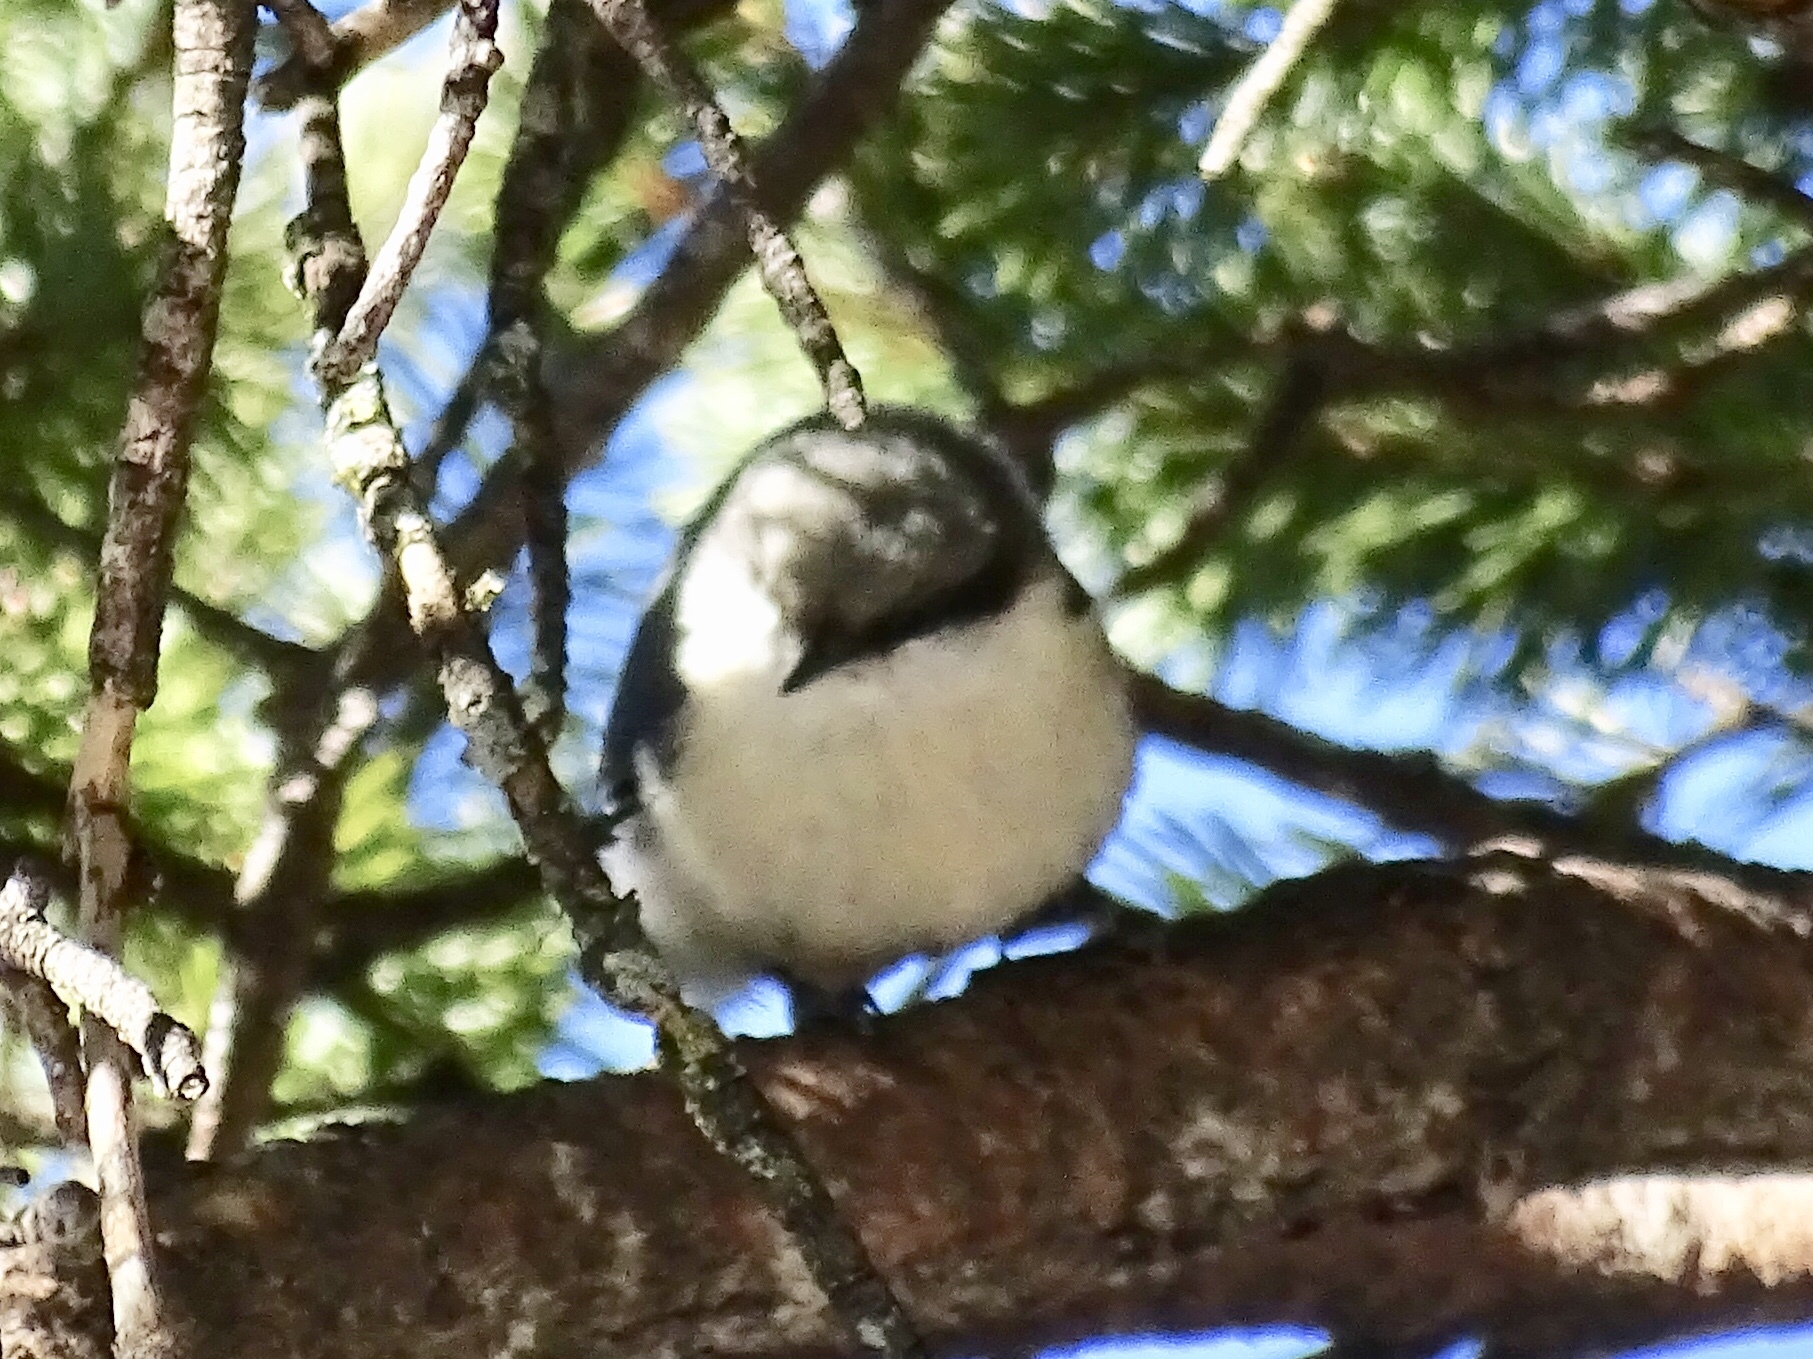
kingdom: Animalia
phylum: Chordata
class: Aves
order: Passeriformes
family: Sittidae
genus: Sitta
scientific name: Sitta pygmaea
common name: Pygmy nuthatch
